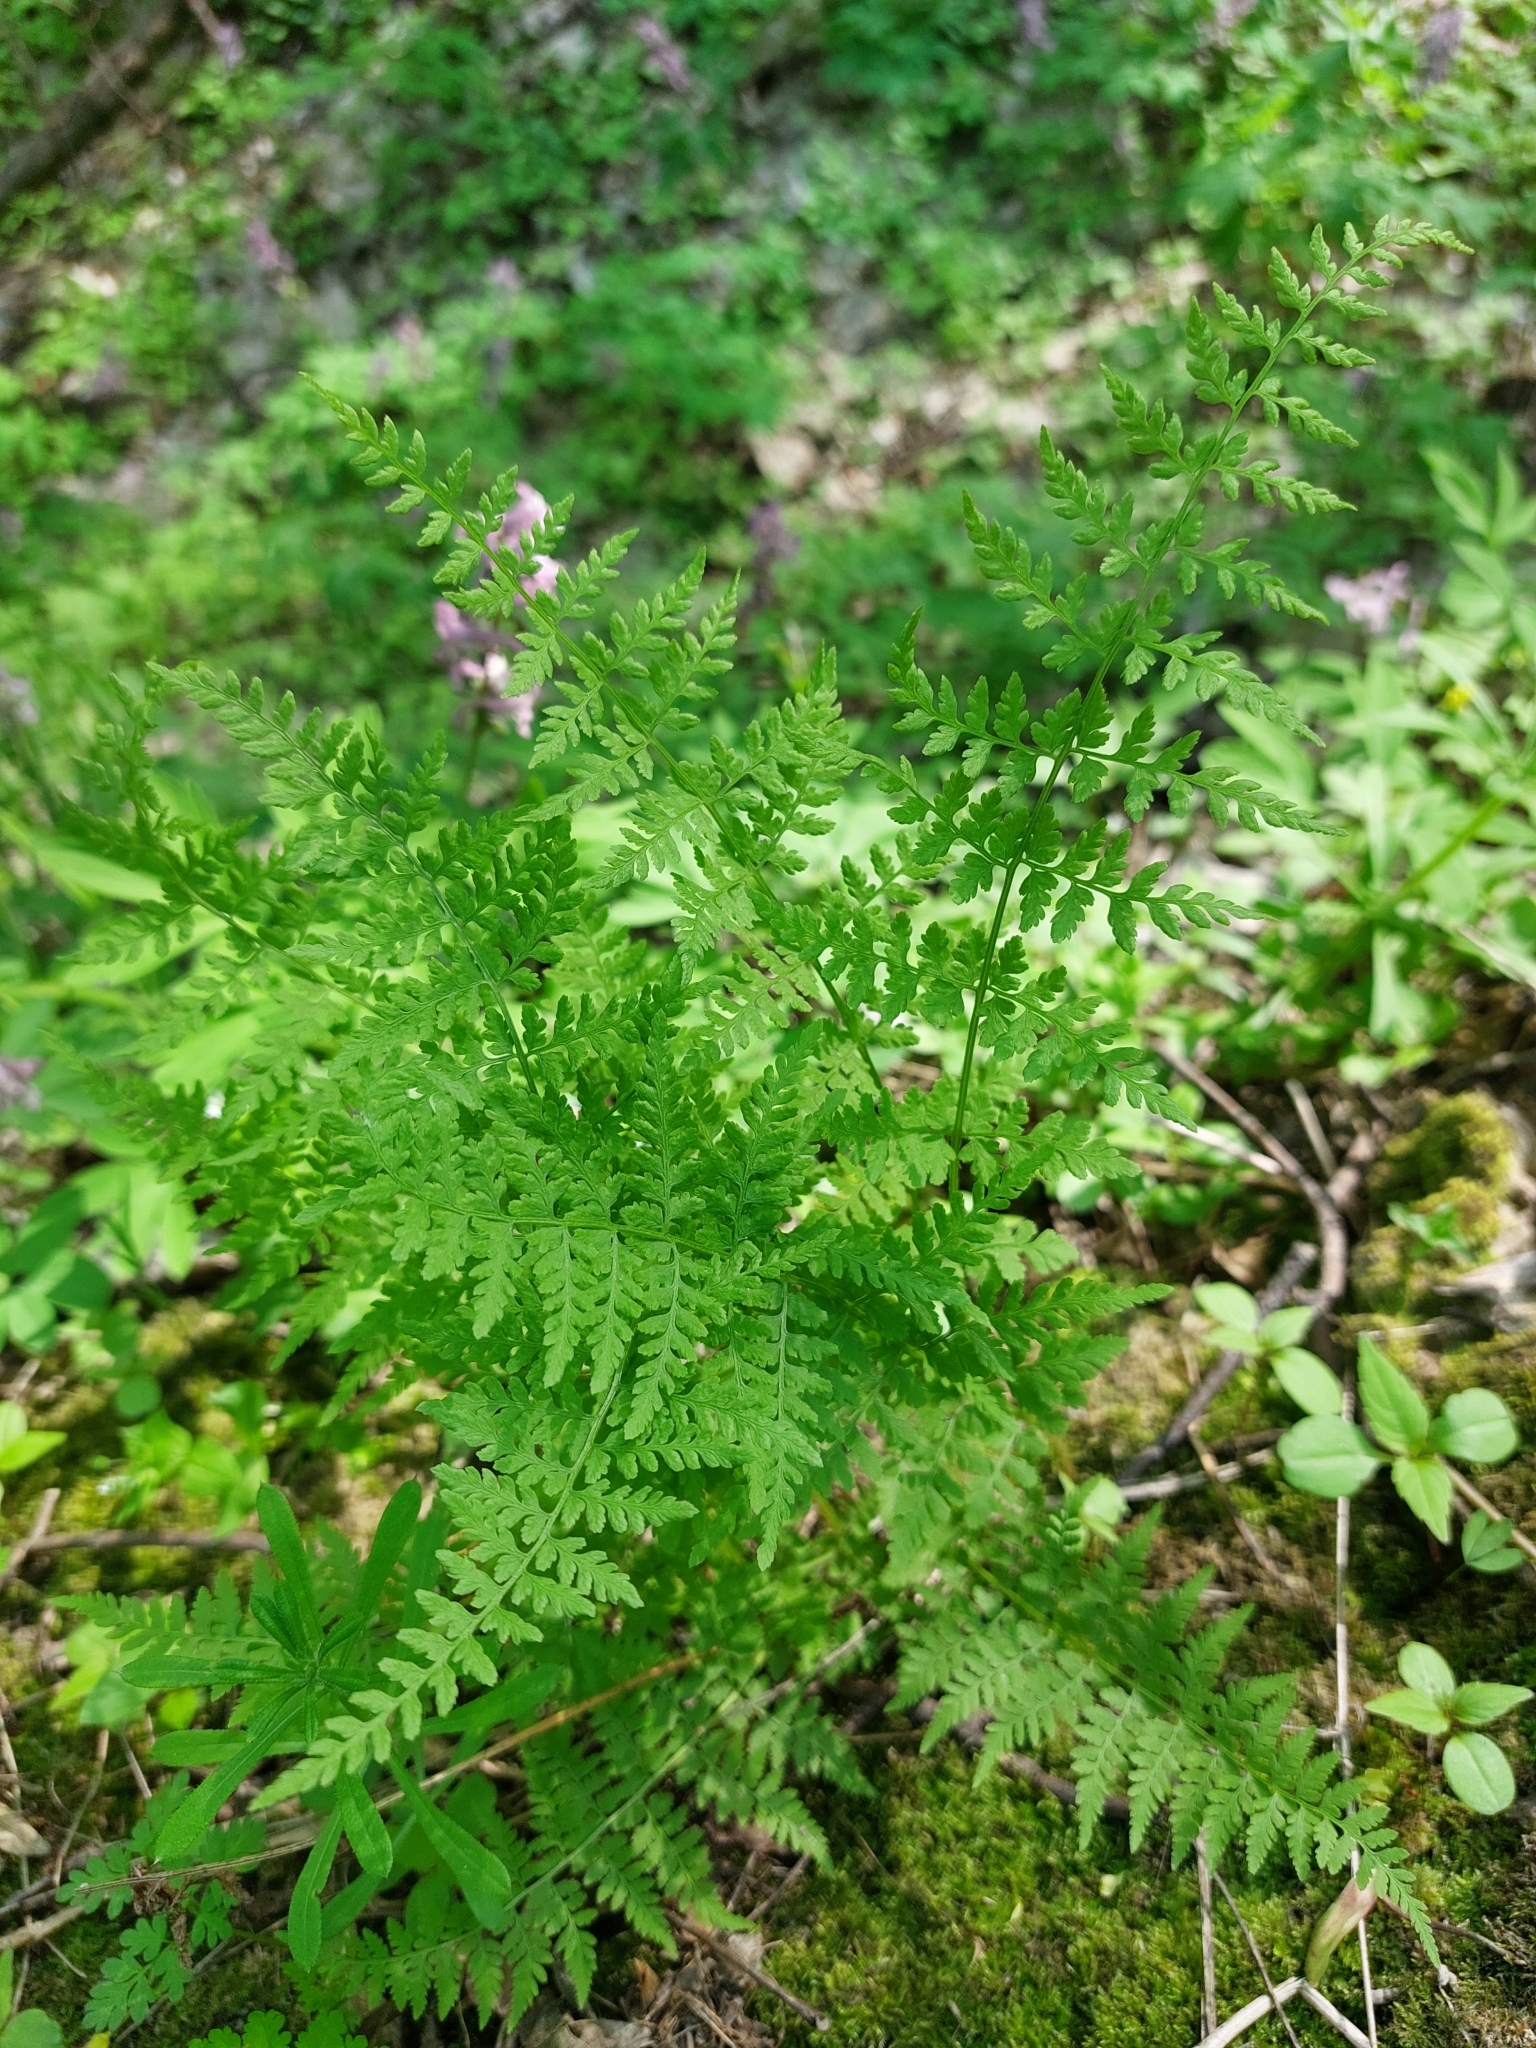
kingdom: Plantae
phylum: Tracheophyta
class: Polypodiopsida
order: Polypodiales
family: Cystopteridaceae
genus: Cystopteris
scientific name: Cystopteris fragilis
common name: Brittle bladder fern
